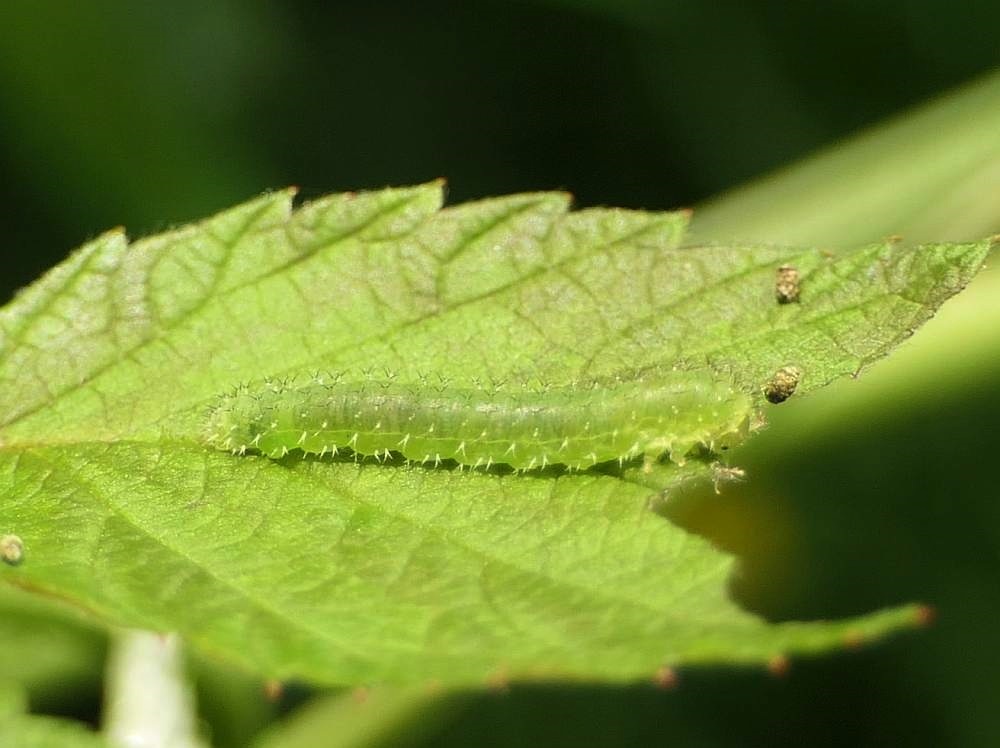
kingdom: Animalia
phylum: Arthropoda
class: Insecta
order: Hymenoptera
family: Tenthredinidae
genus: Monophadnoides
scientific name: Monophadnoides rubi
